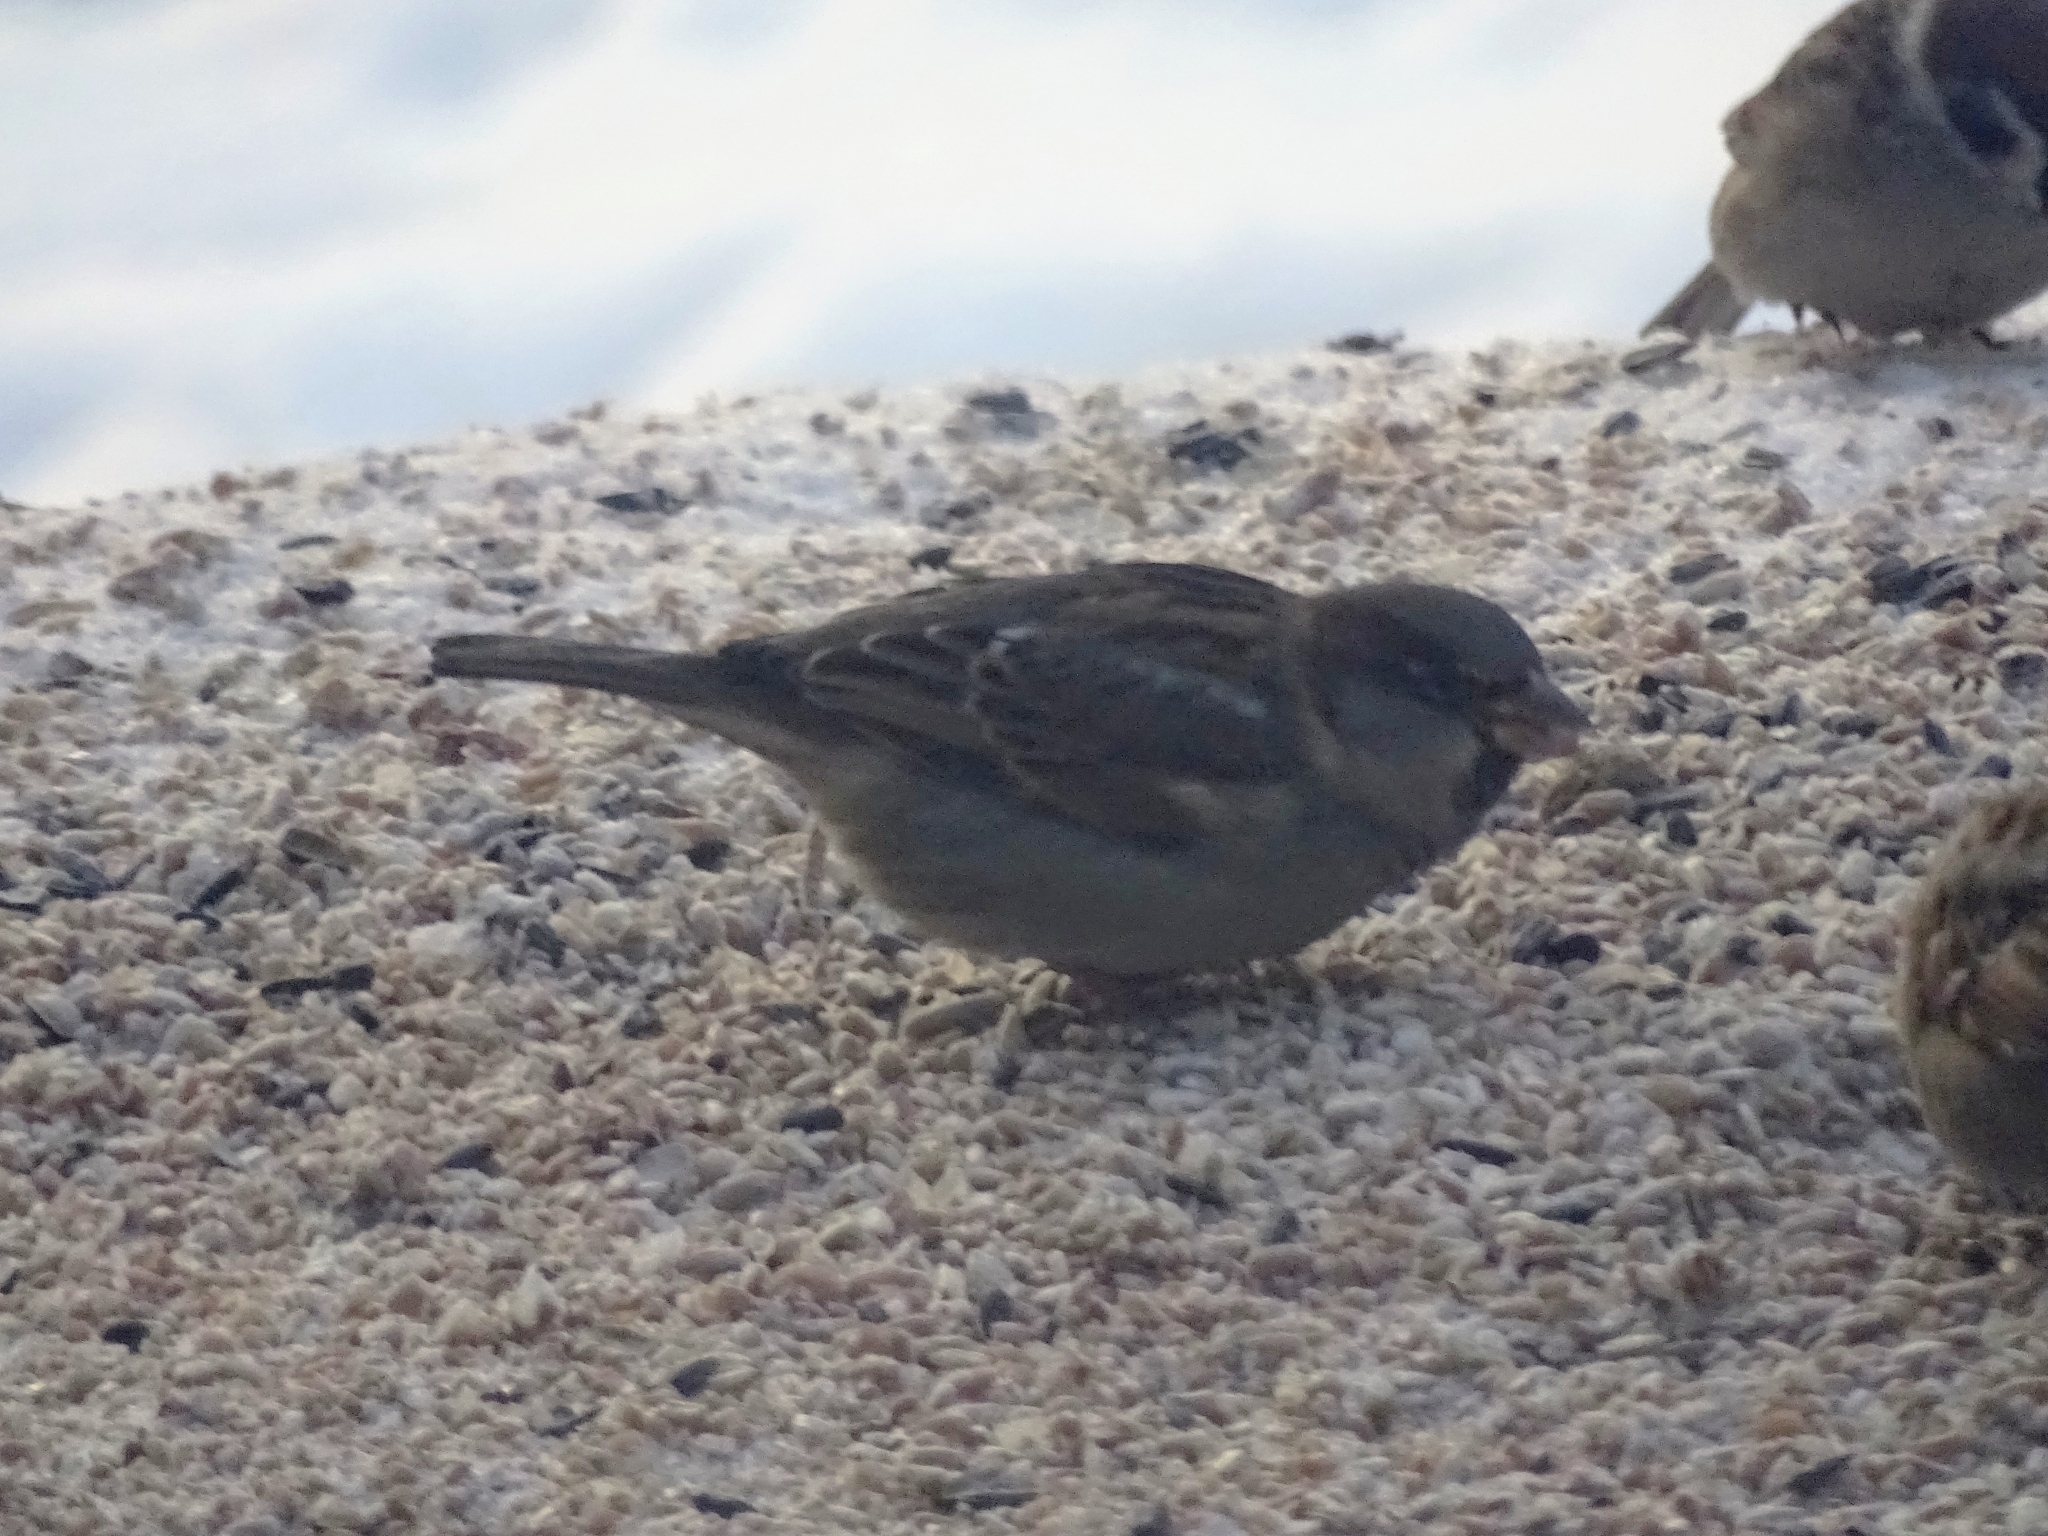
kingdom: Animalia
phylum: Chordata
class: Aves
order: Passeriformes
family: Passeridae
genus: Passer
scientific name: Passer domesticus
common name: House sparrow
